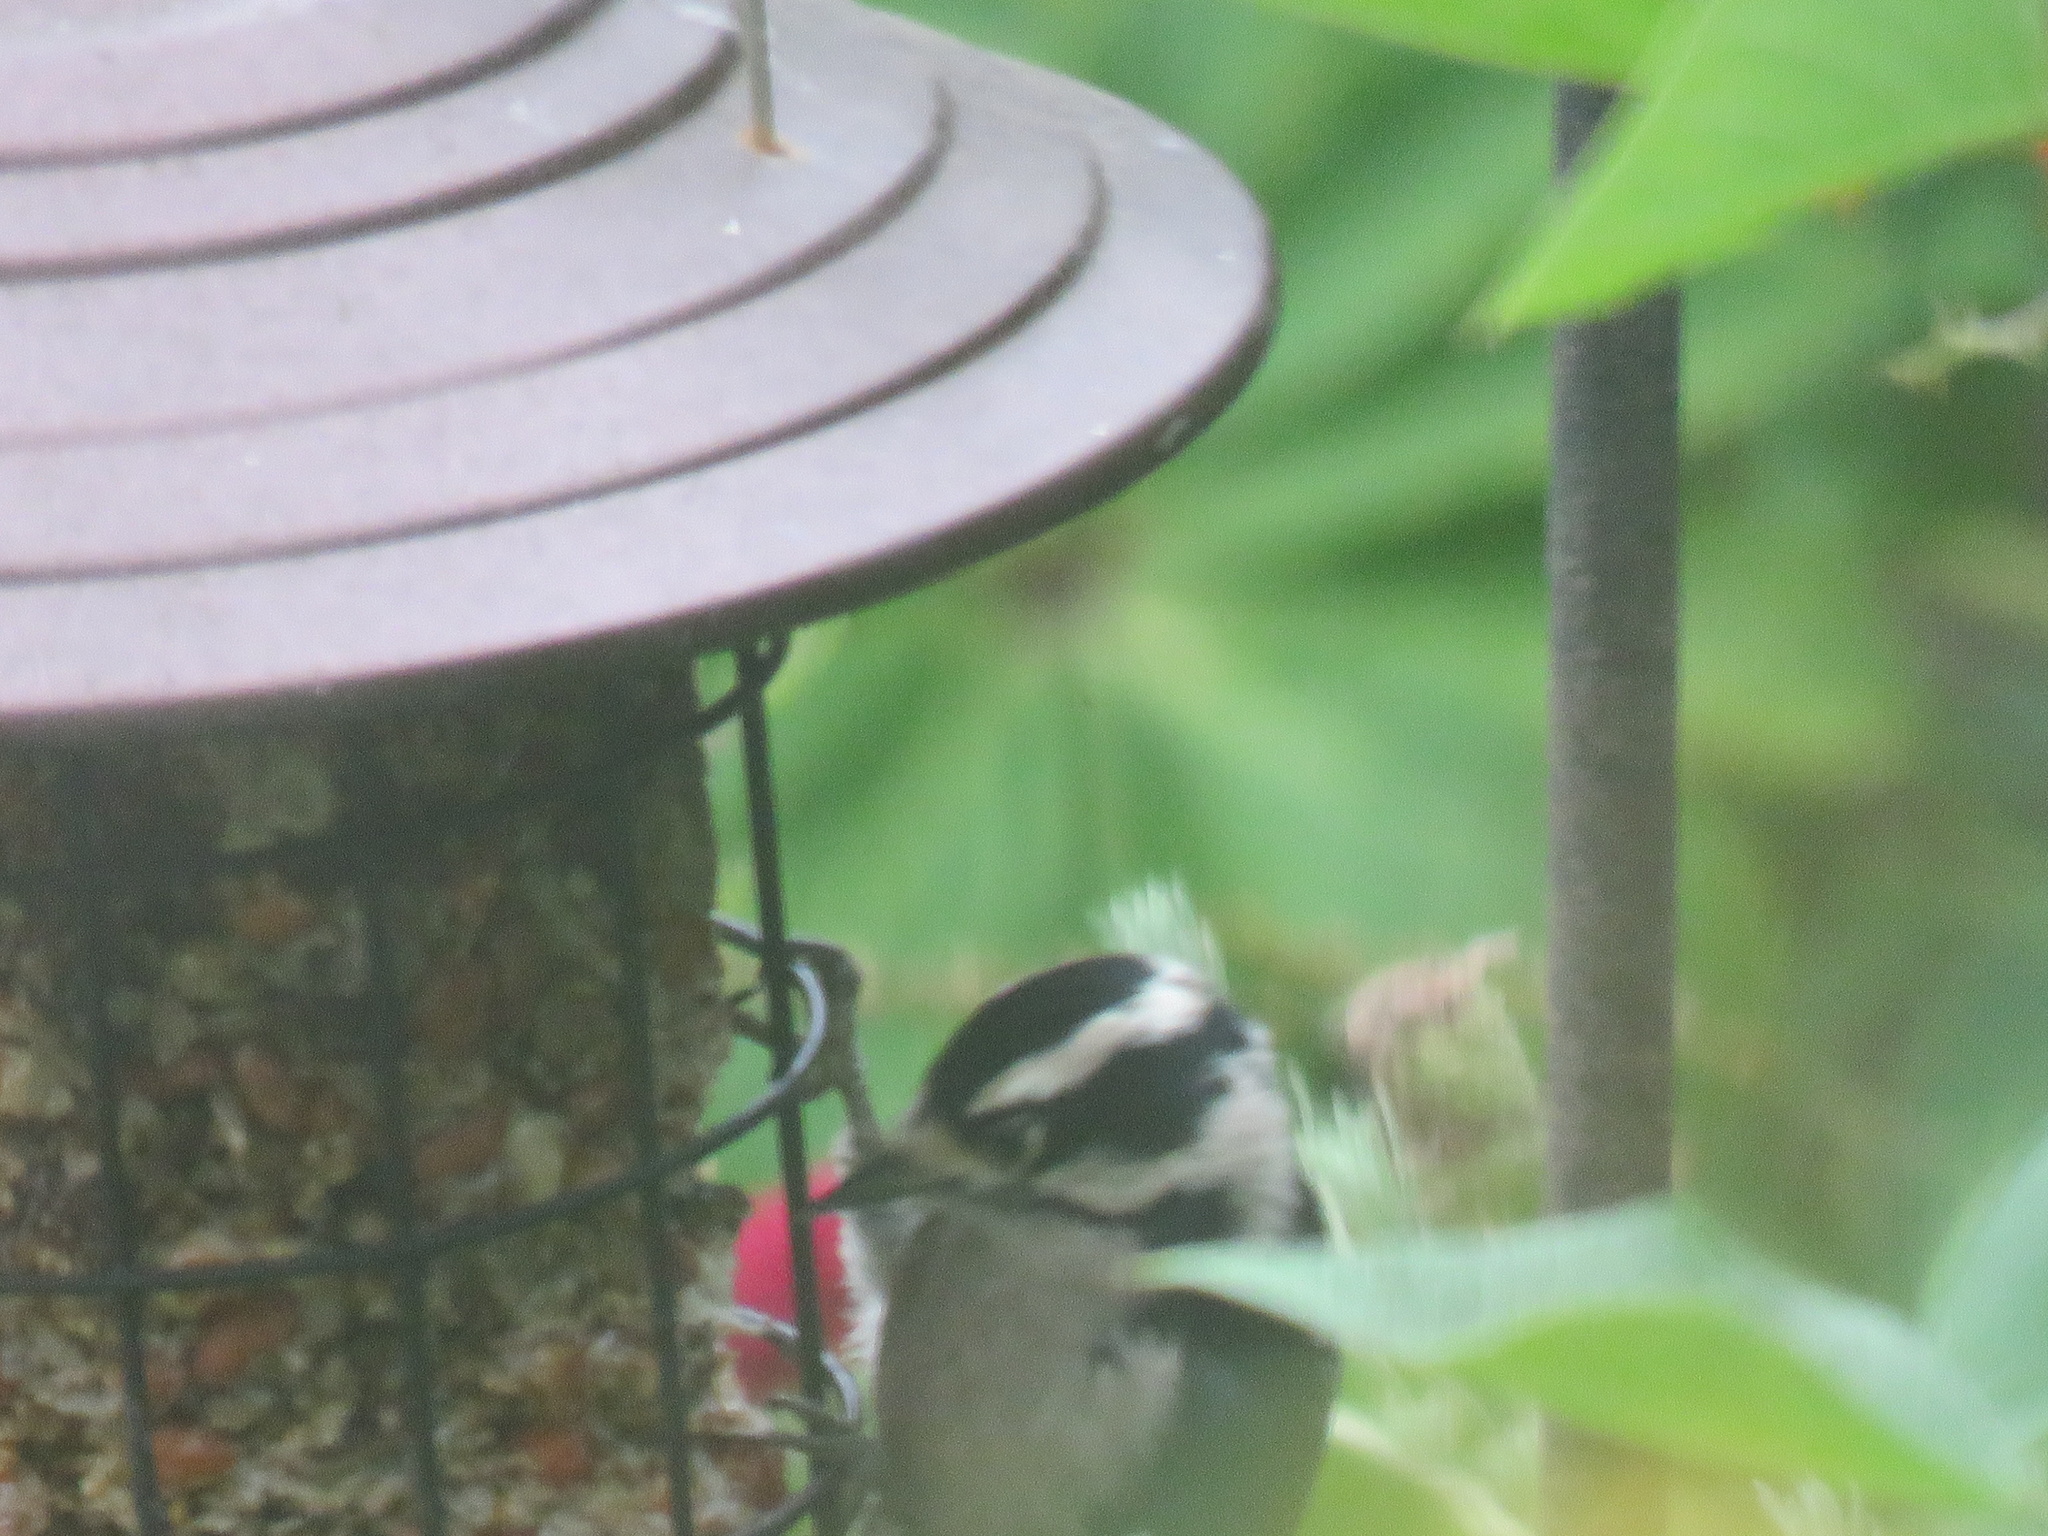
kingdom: Animalia
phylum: Chordata
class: Aves
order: Piciformes
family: Picidae
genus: Dryobates
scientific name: Dryobates pubescens
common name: Downy woodpecker
